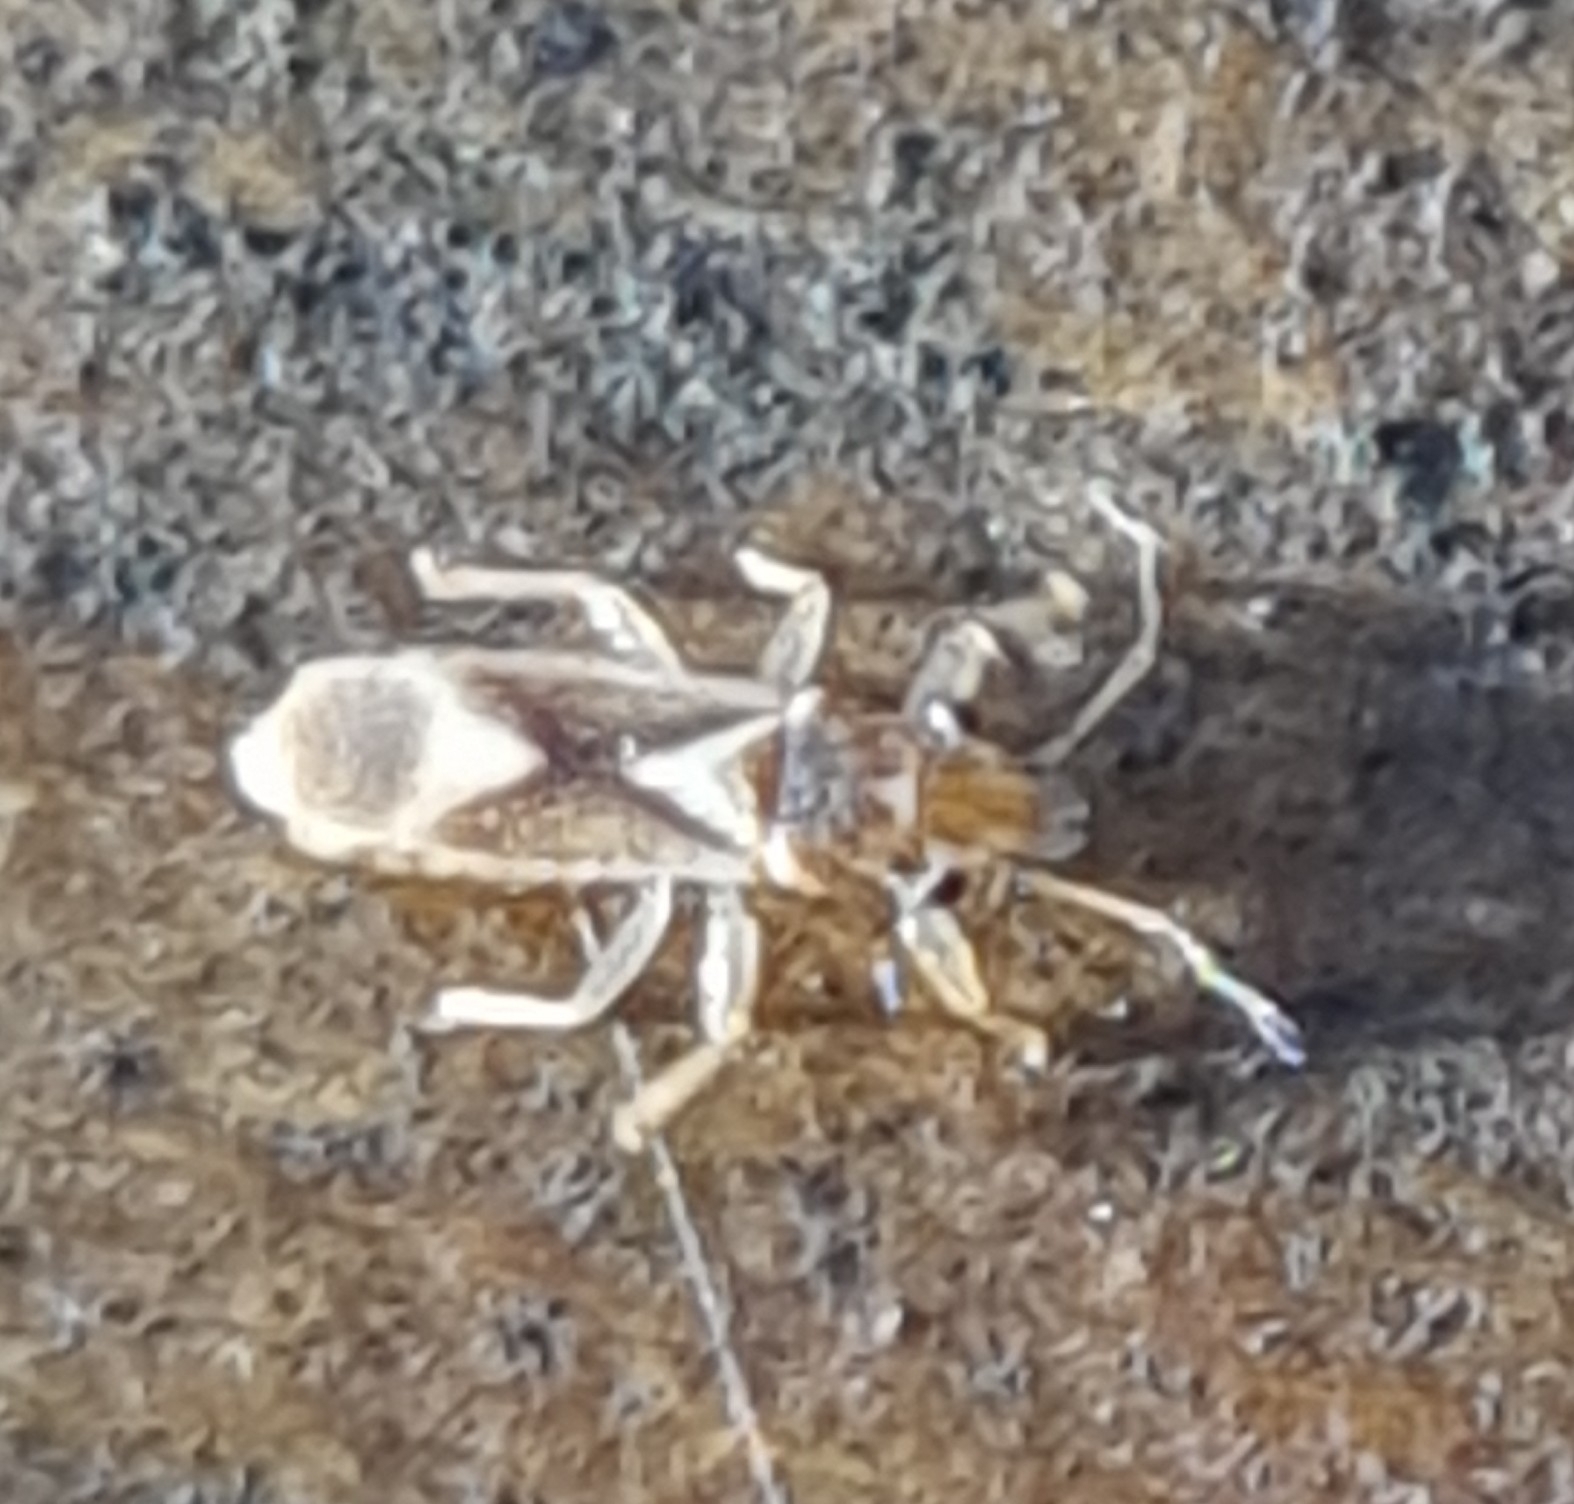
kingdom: Animalia
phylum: Arthropoda
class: Insecta
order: Hemiptera
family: Thaumastocoridae
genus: Thaumastocoris
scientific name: Thaumastocoris peregrinus
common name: Bronze bug
